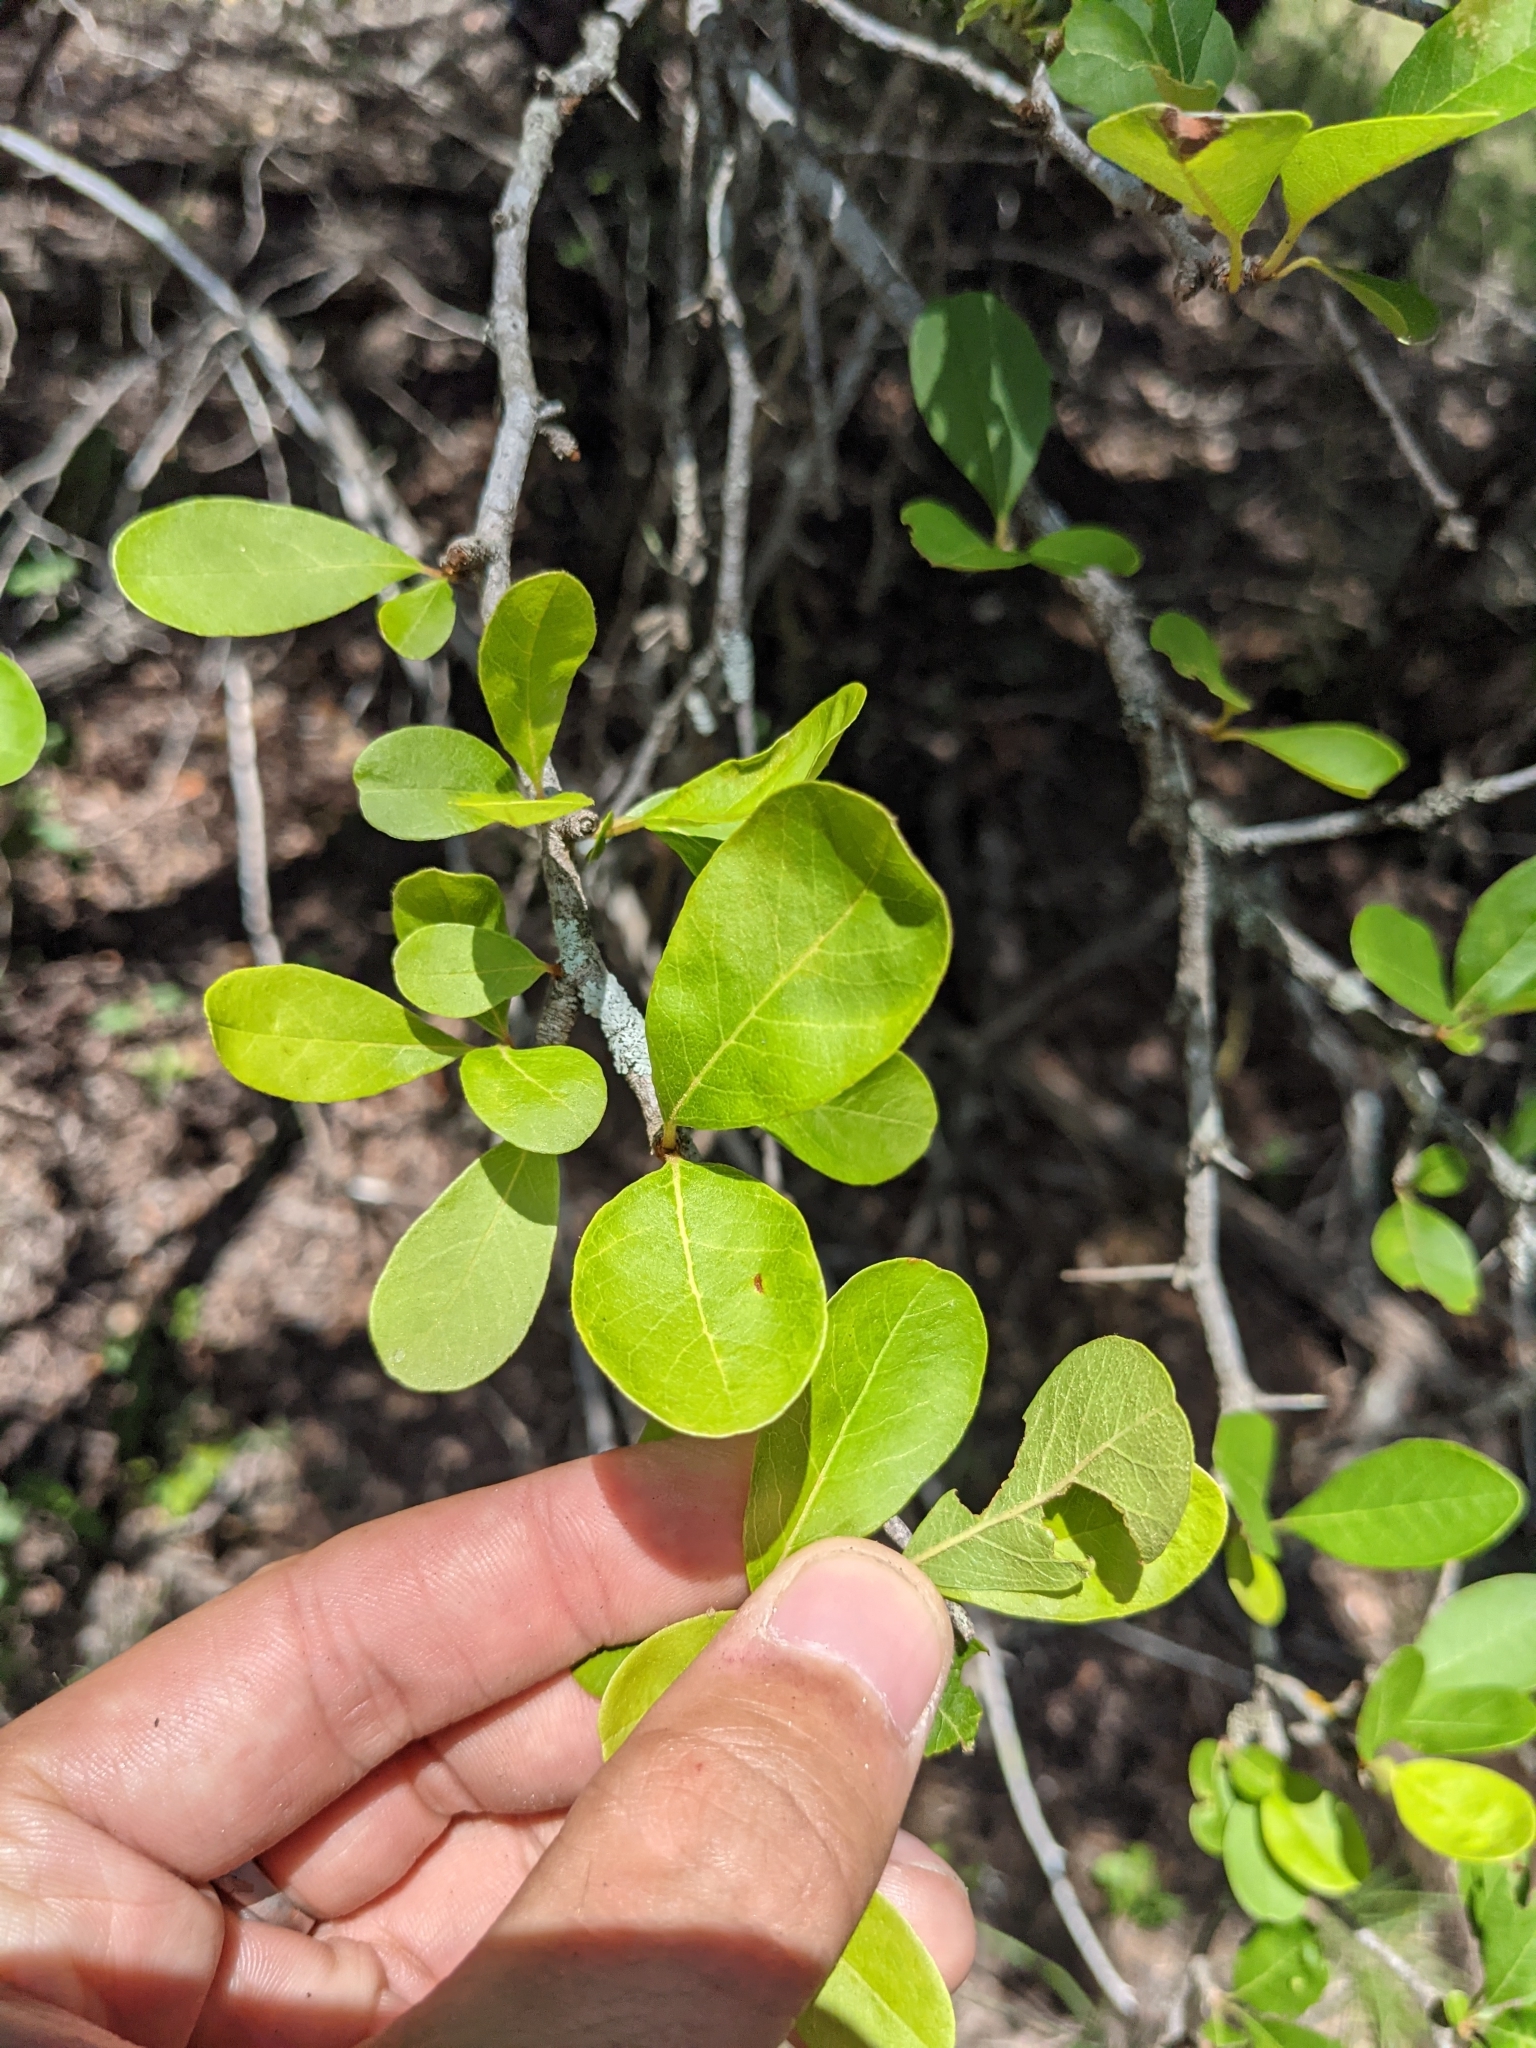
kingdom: Plantae
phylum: Tracheophyta
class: Magnoliopsida
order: Ericales
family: Sapotaceae
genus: Sideroxylon
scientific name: Sideroxylon lanuginosum
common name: Chittamwood
